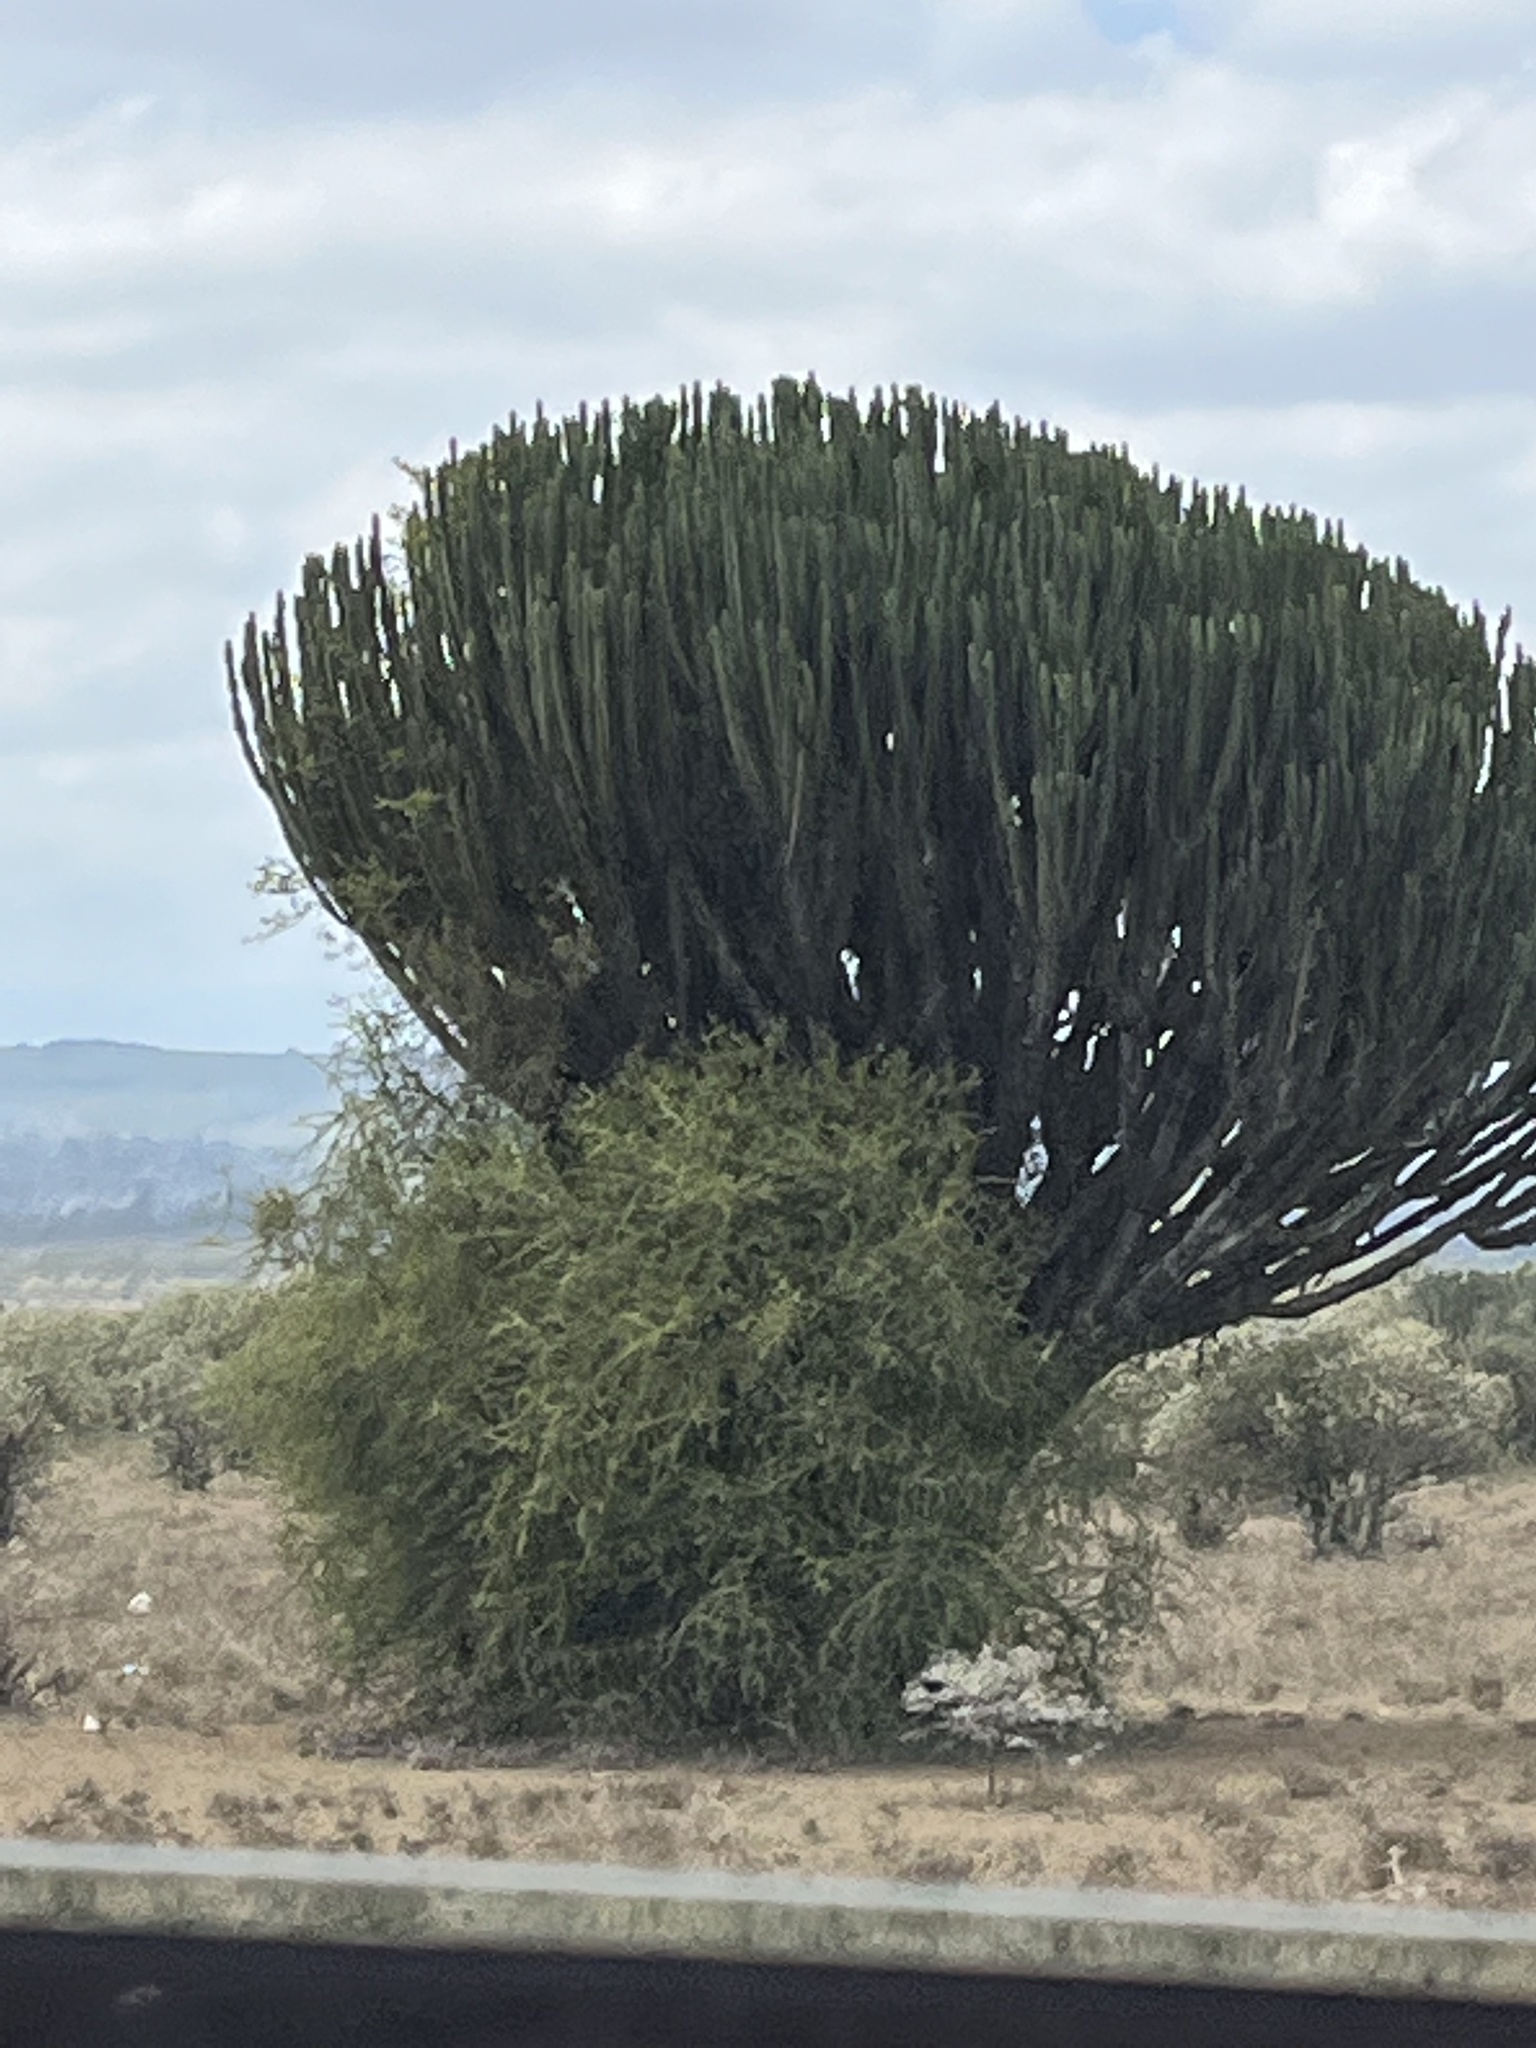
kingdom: Plantae
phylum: Tracheophyta
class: Magnoliopsida
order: Malpighiales
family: Euphorbiaceae
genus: Euphorbia
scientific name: Euphorbia ingens
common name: Cactus spurge
